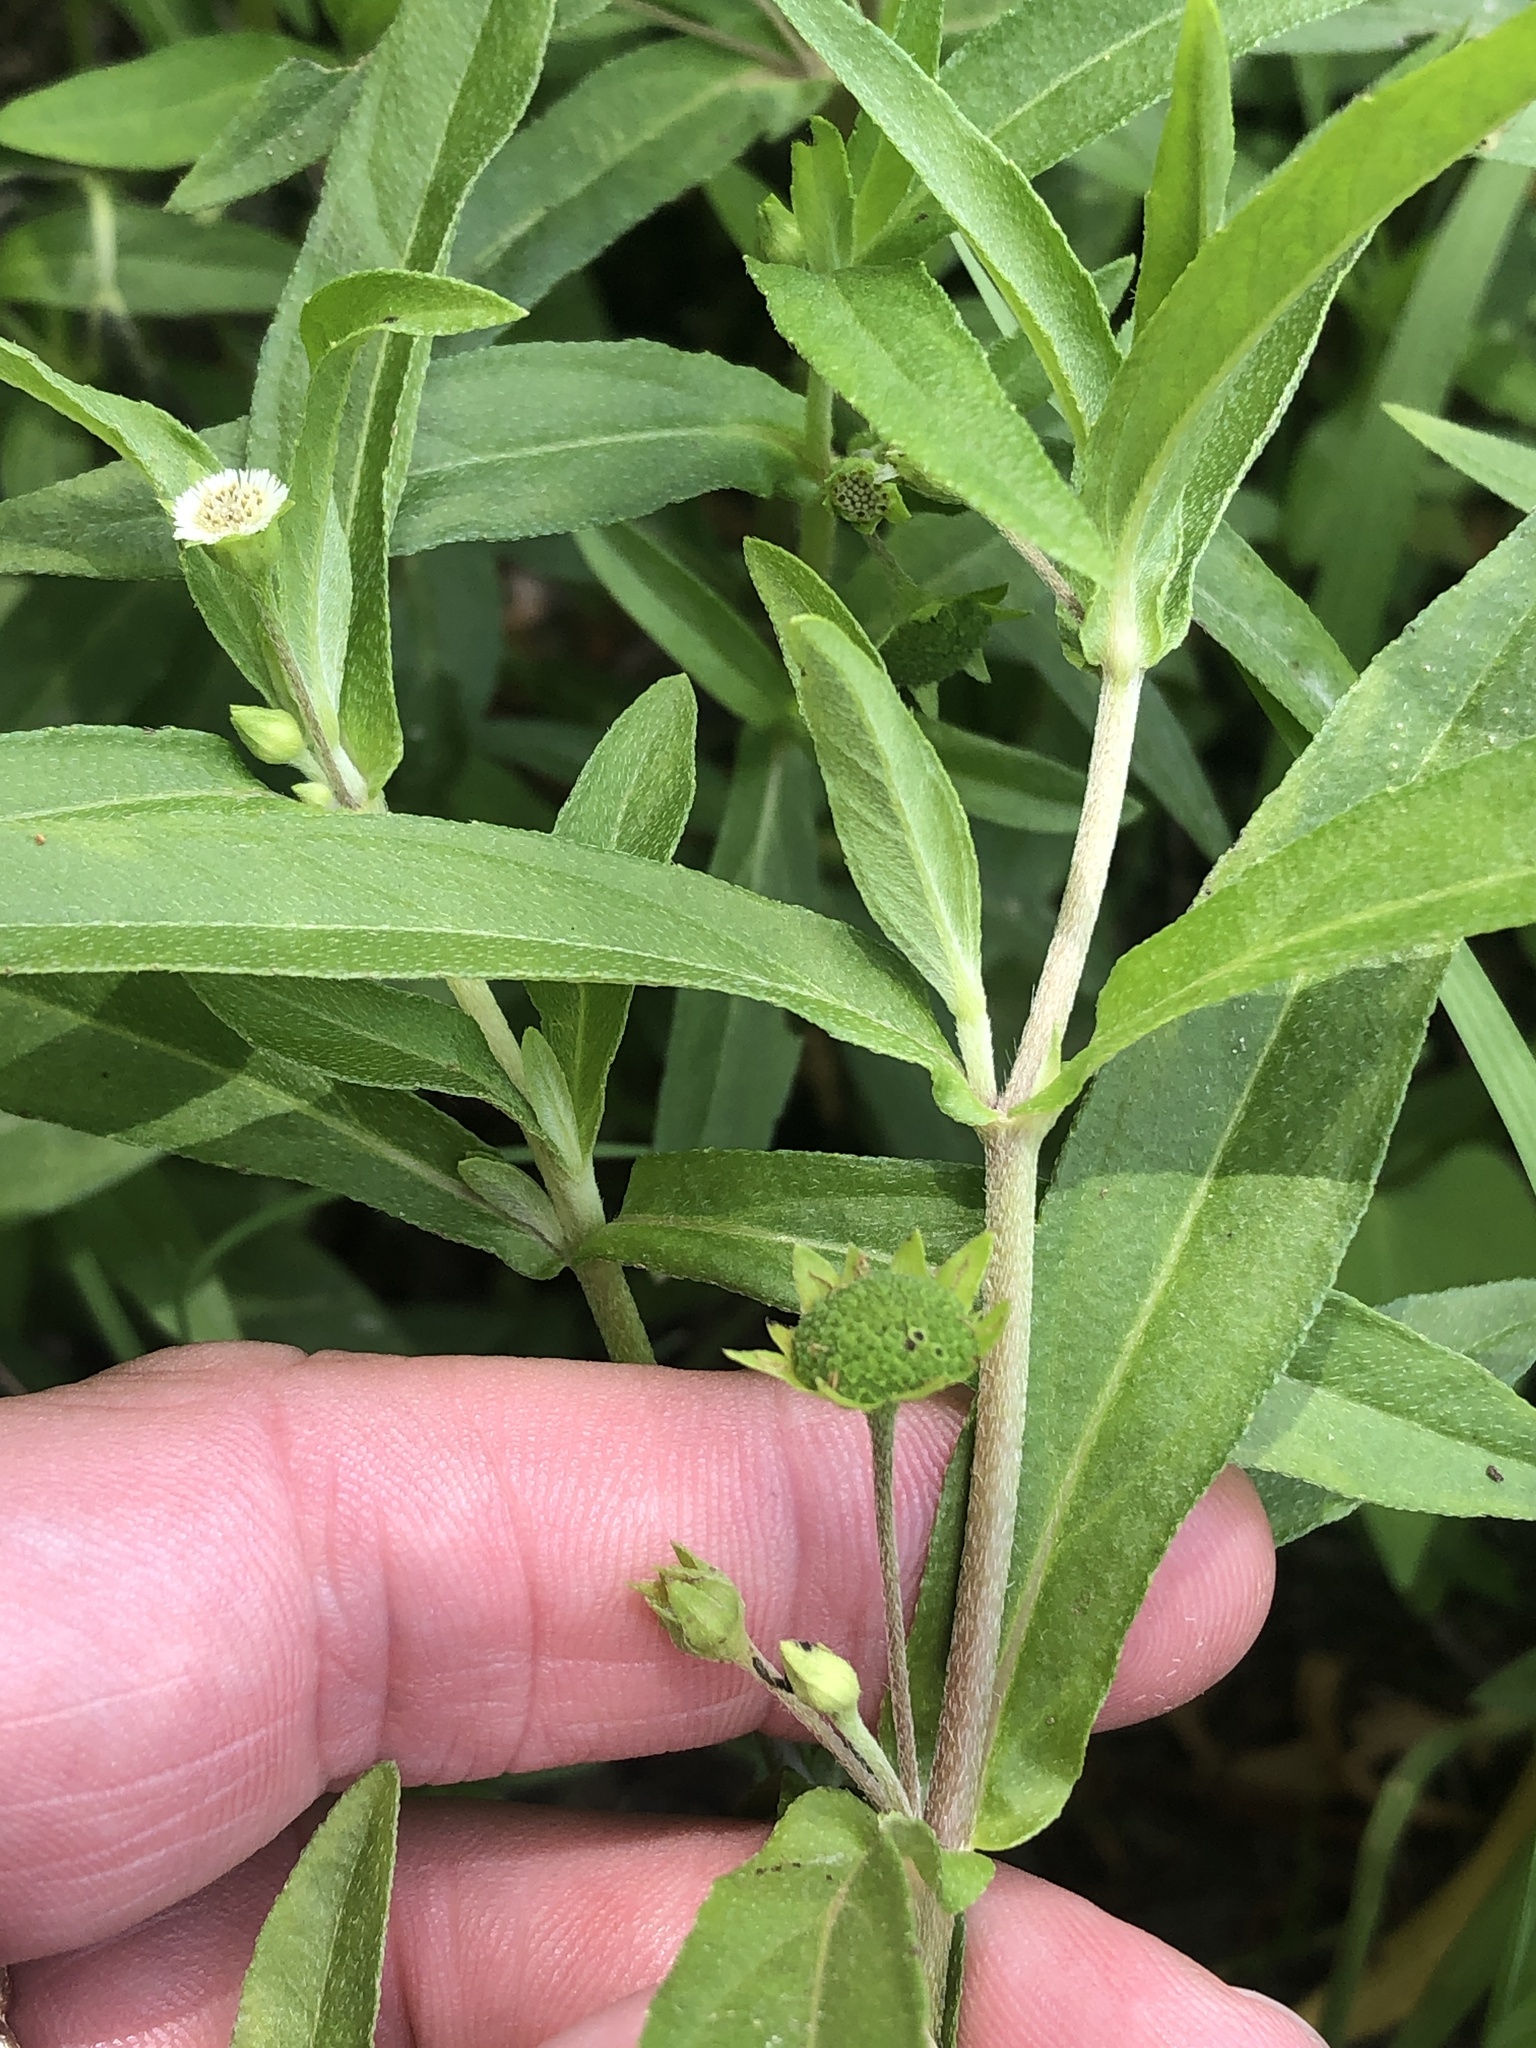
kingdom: Plantae
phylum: Tracheophyta
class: Magnoliopsida
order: Asterales
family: Asteraceae
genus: Eclipta
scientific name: Eclipta prostrata
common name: False daisy
